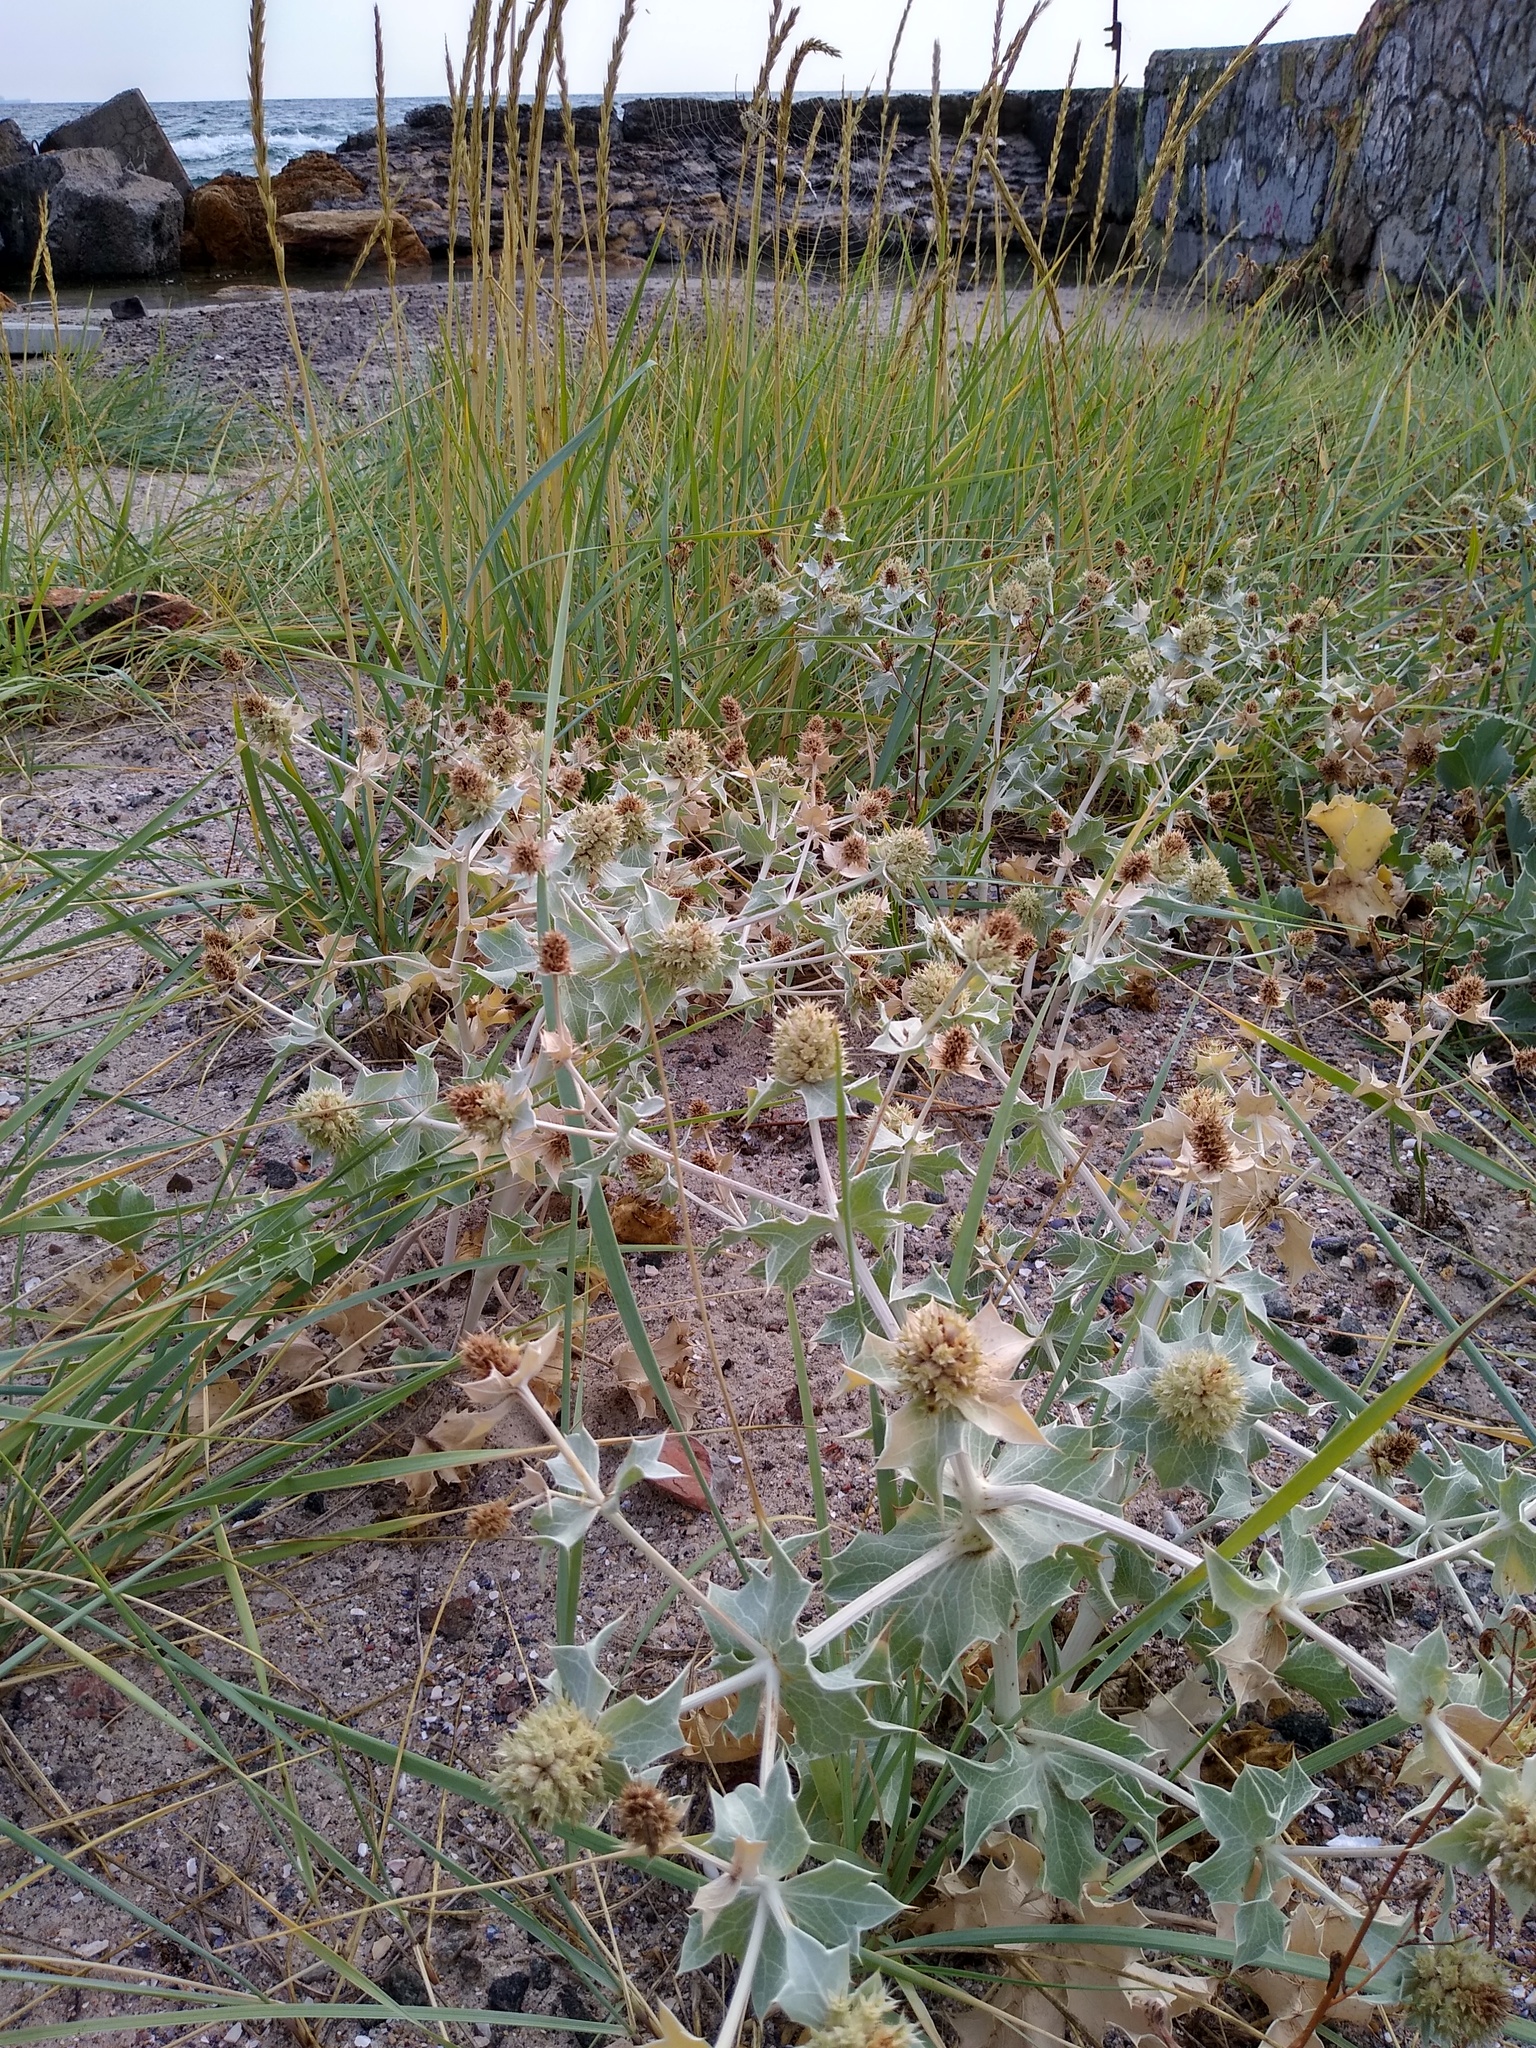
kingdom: Plantae
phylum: Tracheophyta
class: Magnoliopsida
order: Apiales
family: Apiaceae
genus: Eryngium
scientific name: Eryngium maritimum
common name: Sea-holly
